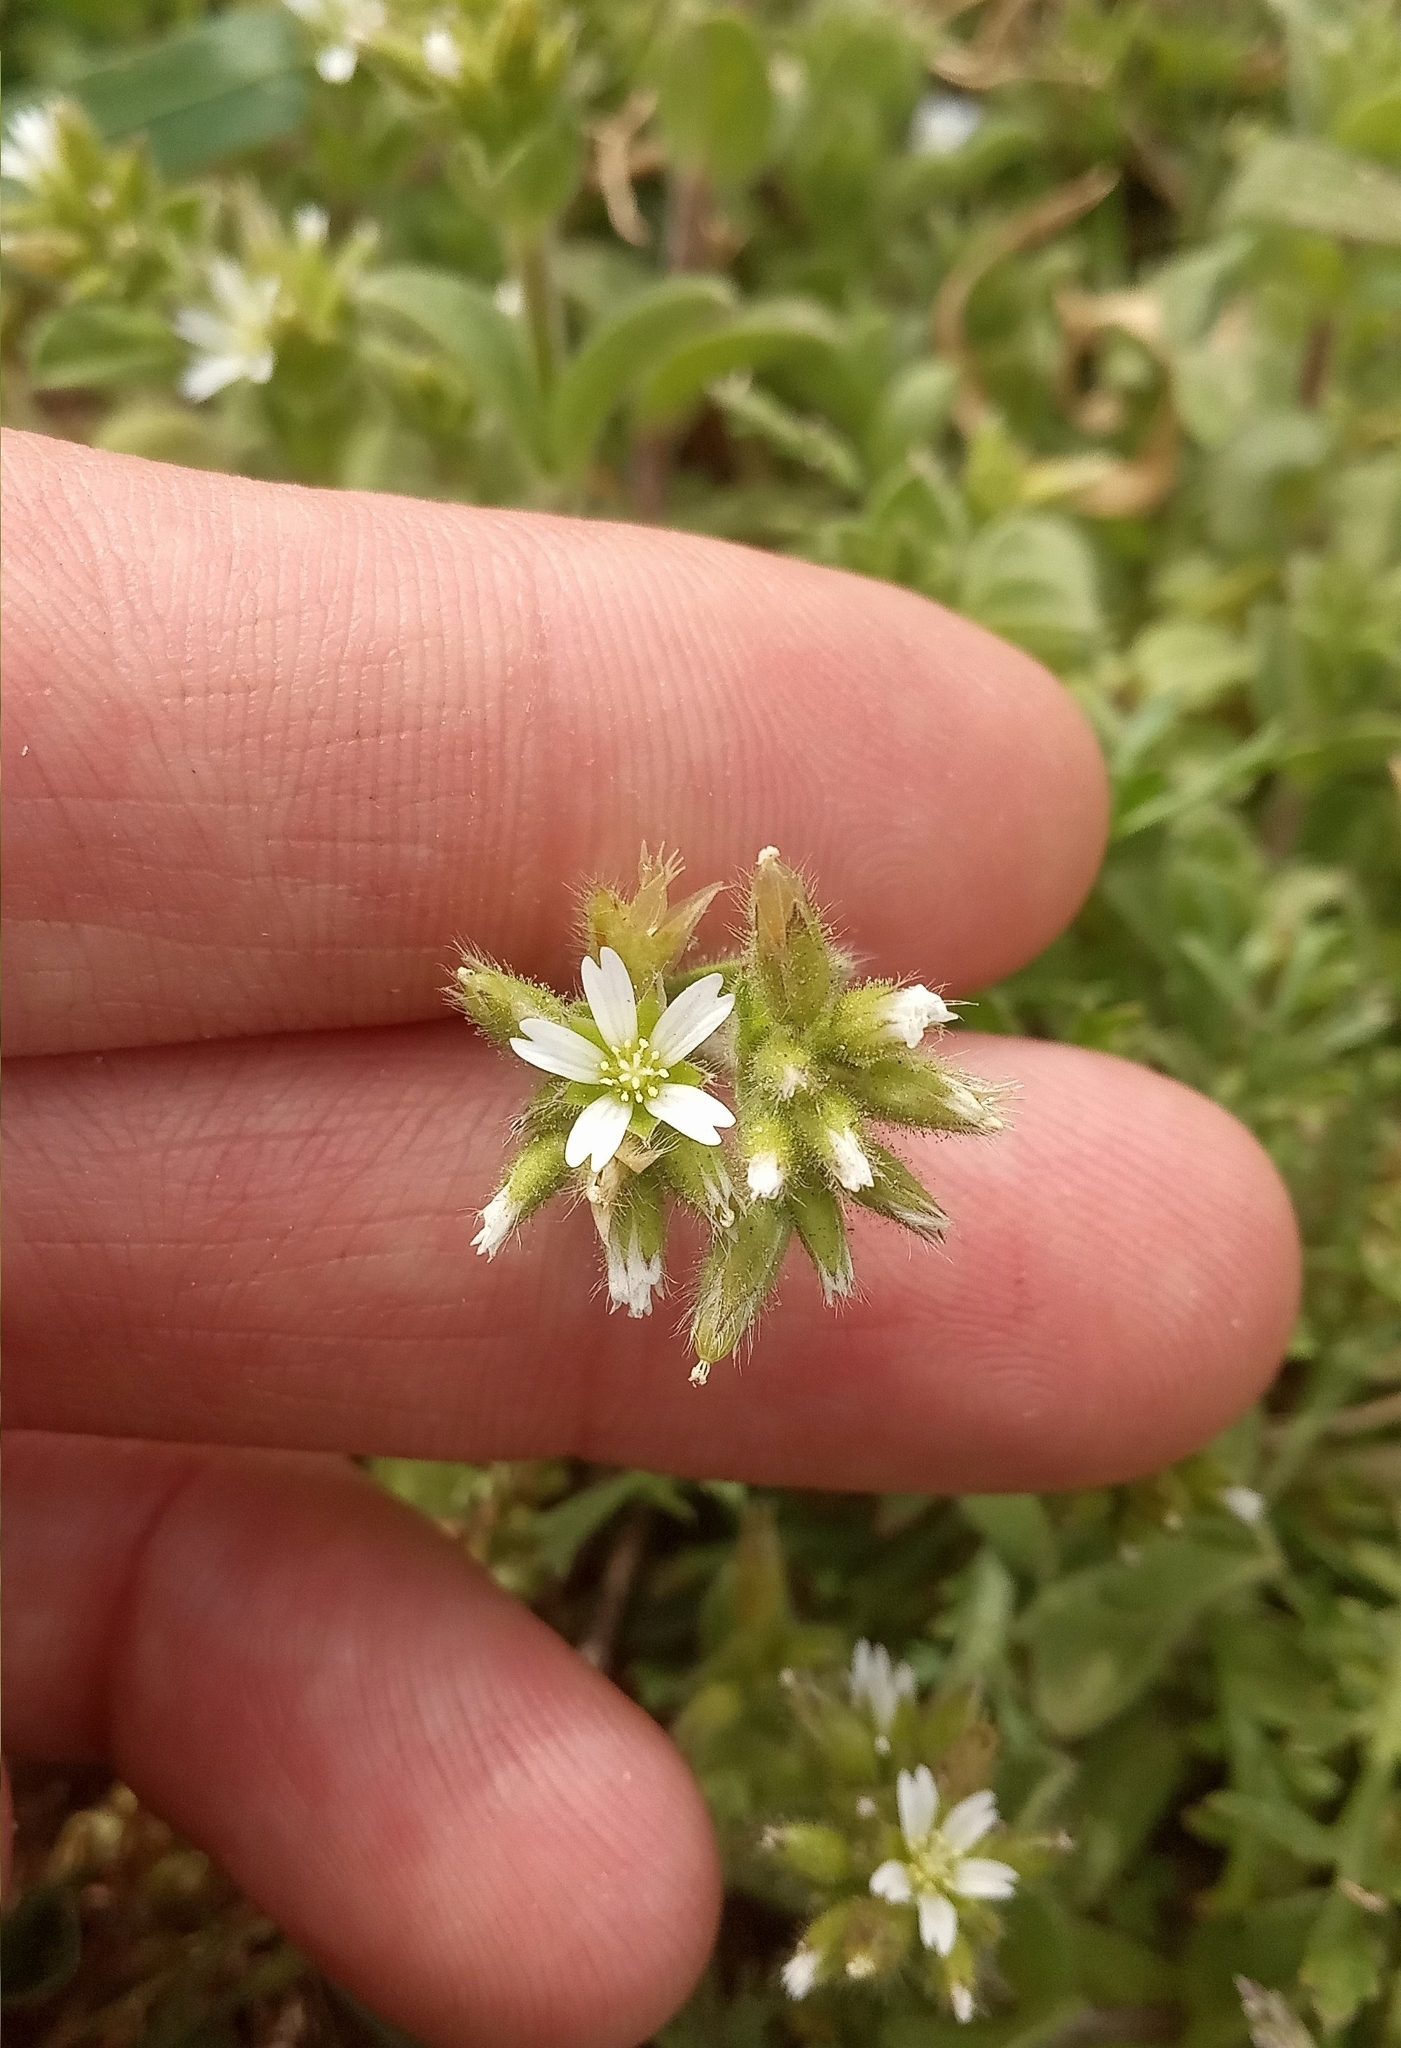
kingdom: Plantae
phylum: Tracheophyta
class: Magnoliopsida
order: Caryophyllales
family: Caryophyllaceae
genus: Cerastium
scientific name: Cerastium junceum
